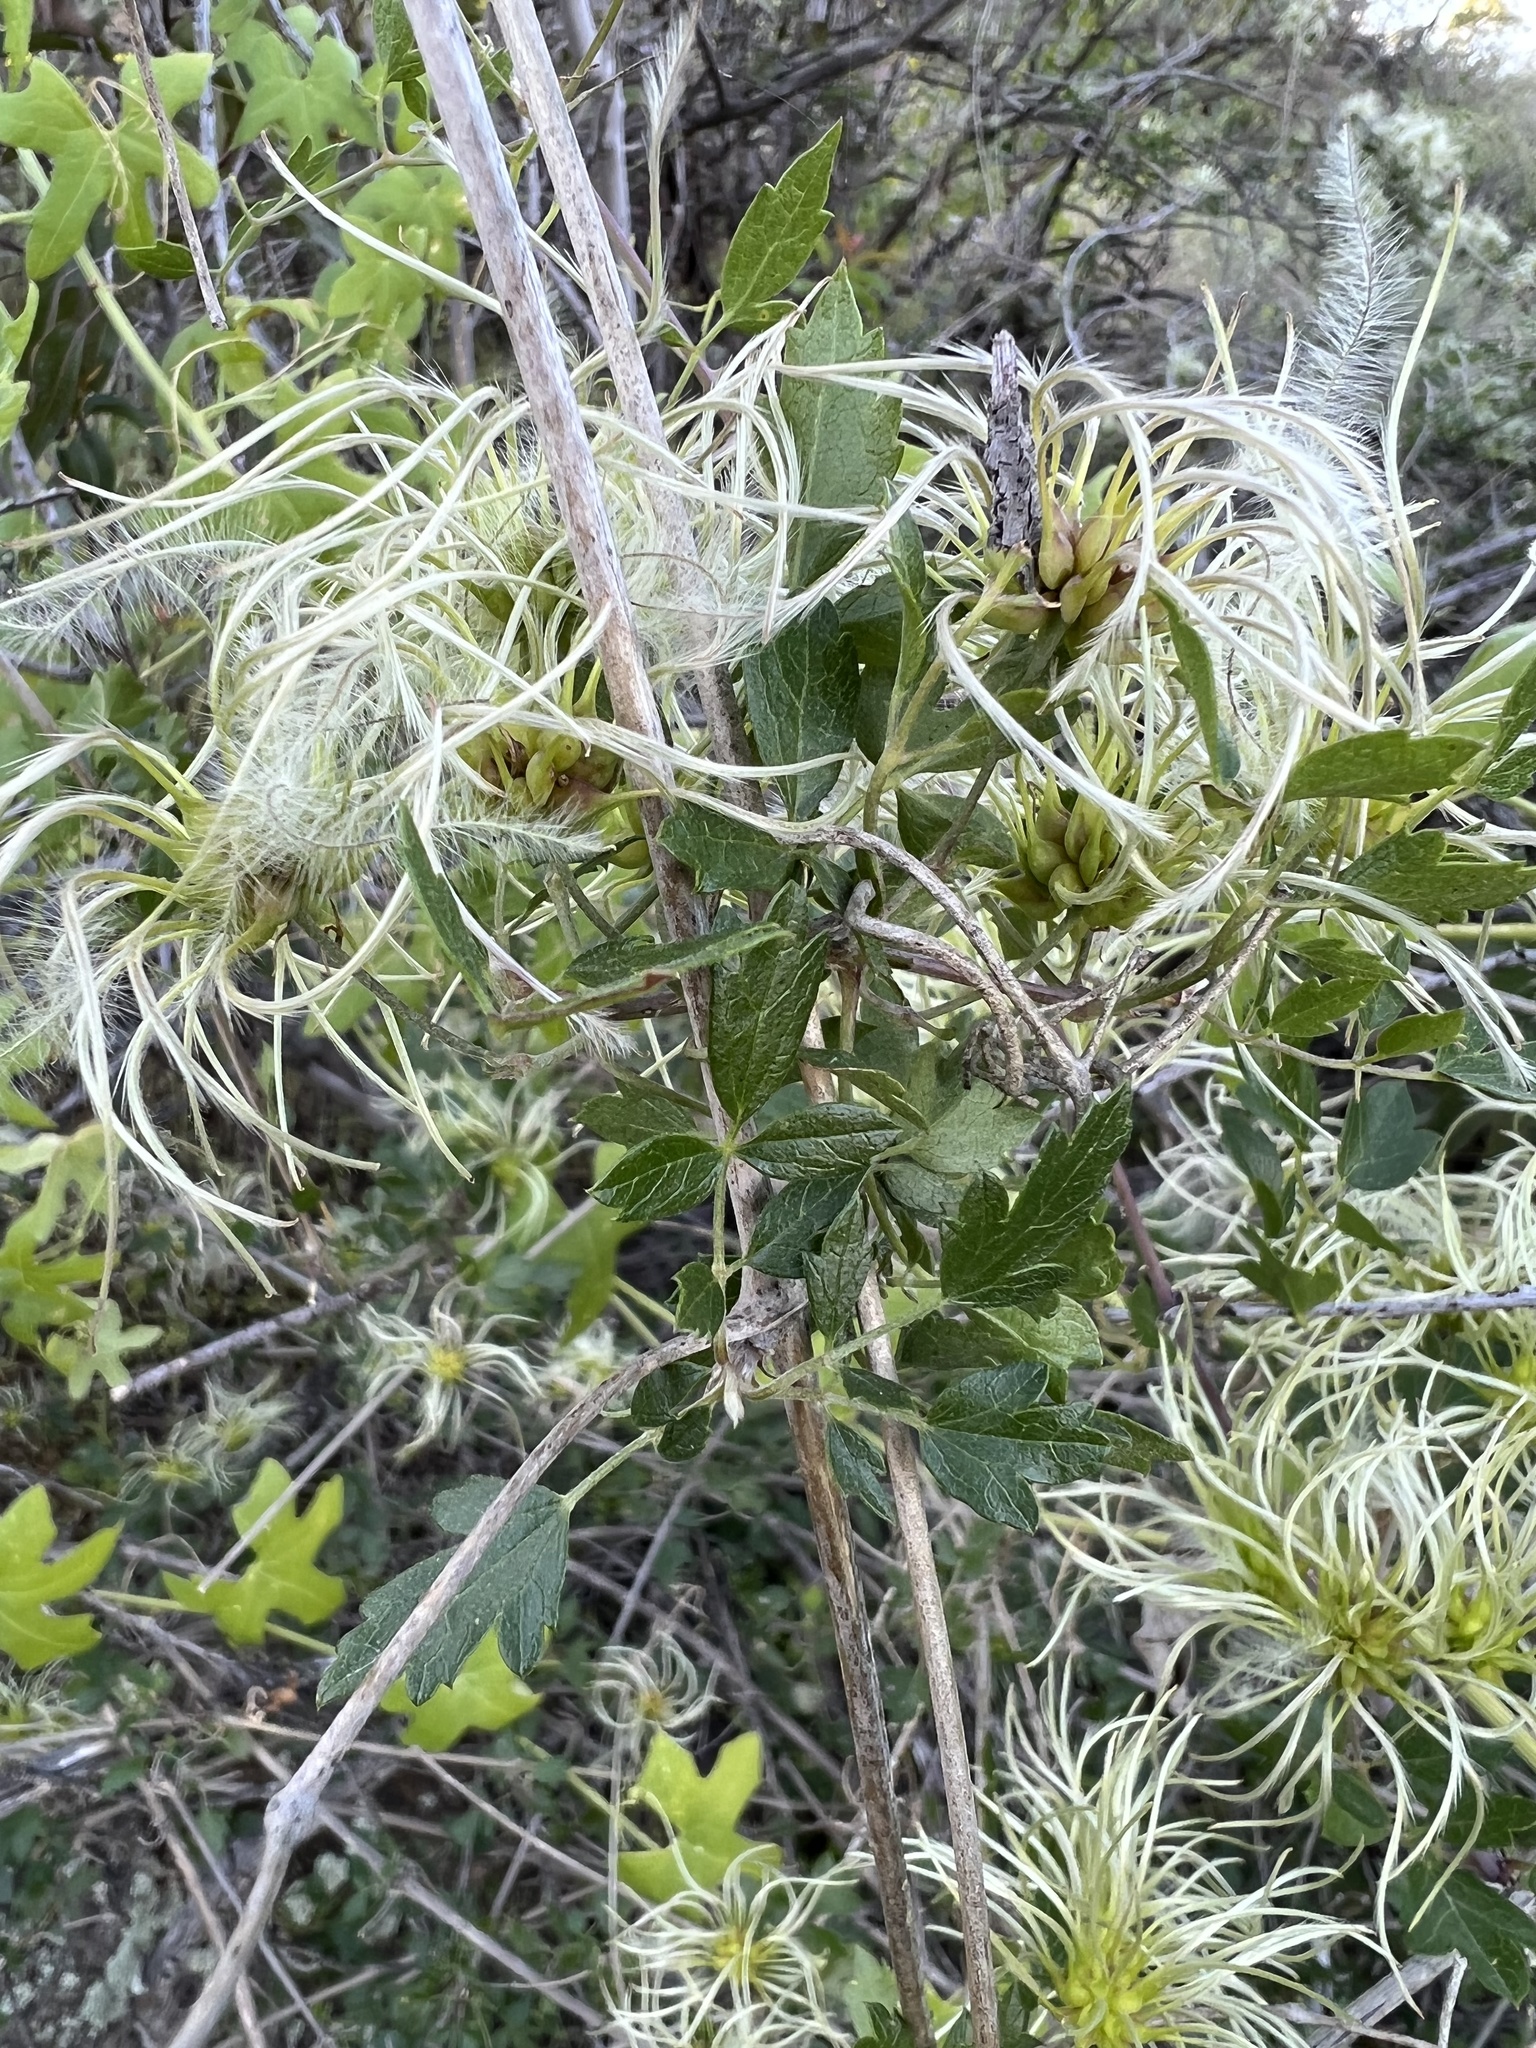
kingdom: Plantae
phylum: Tracheophyta
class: Magnoliopsida
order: Ranunculales
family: Ranunculaceae
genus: Clematis
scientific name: Clematis pauciflora
